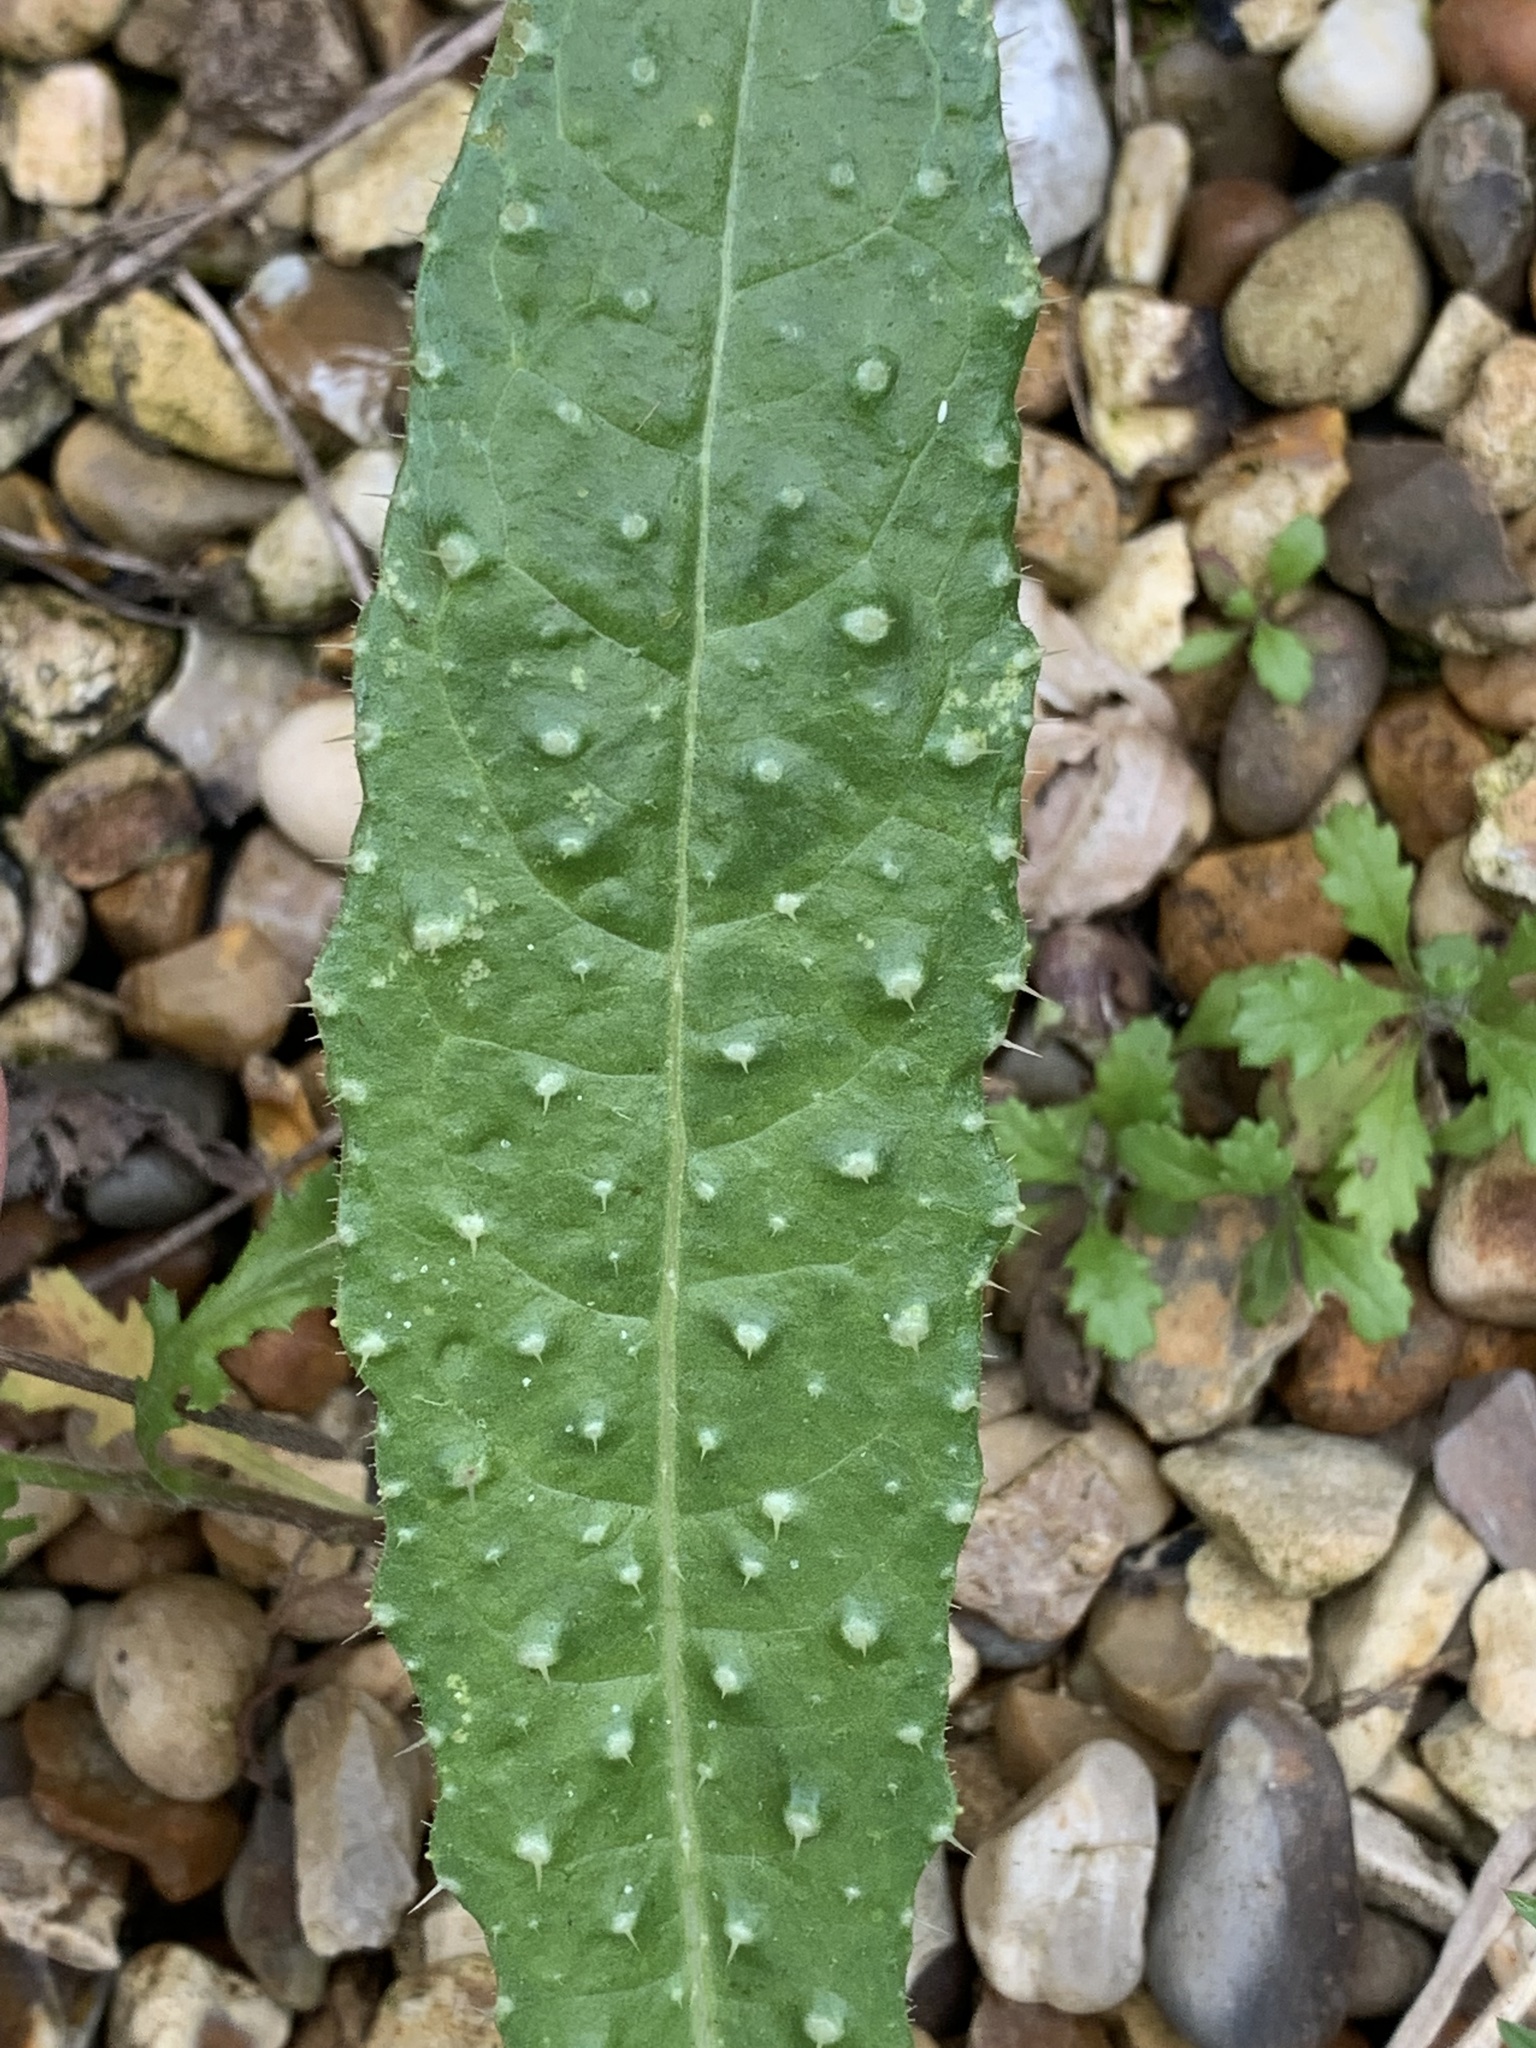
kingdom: Plantae
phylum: Tracheophyta
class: Magnoliopsida
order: Asterales
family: Asteraceae
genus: Helminthotheca
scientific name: Helminthotheca echioides
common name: Ox-tongue
